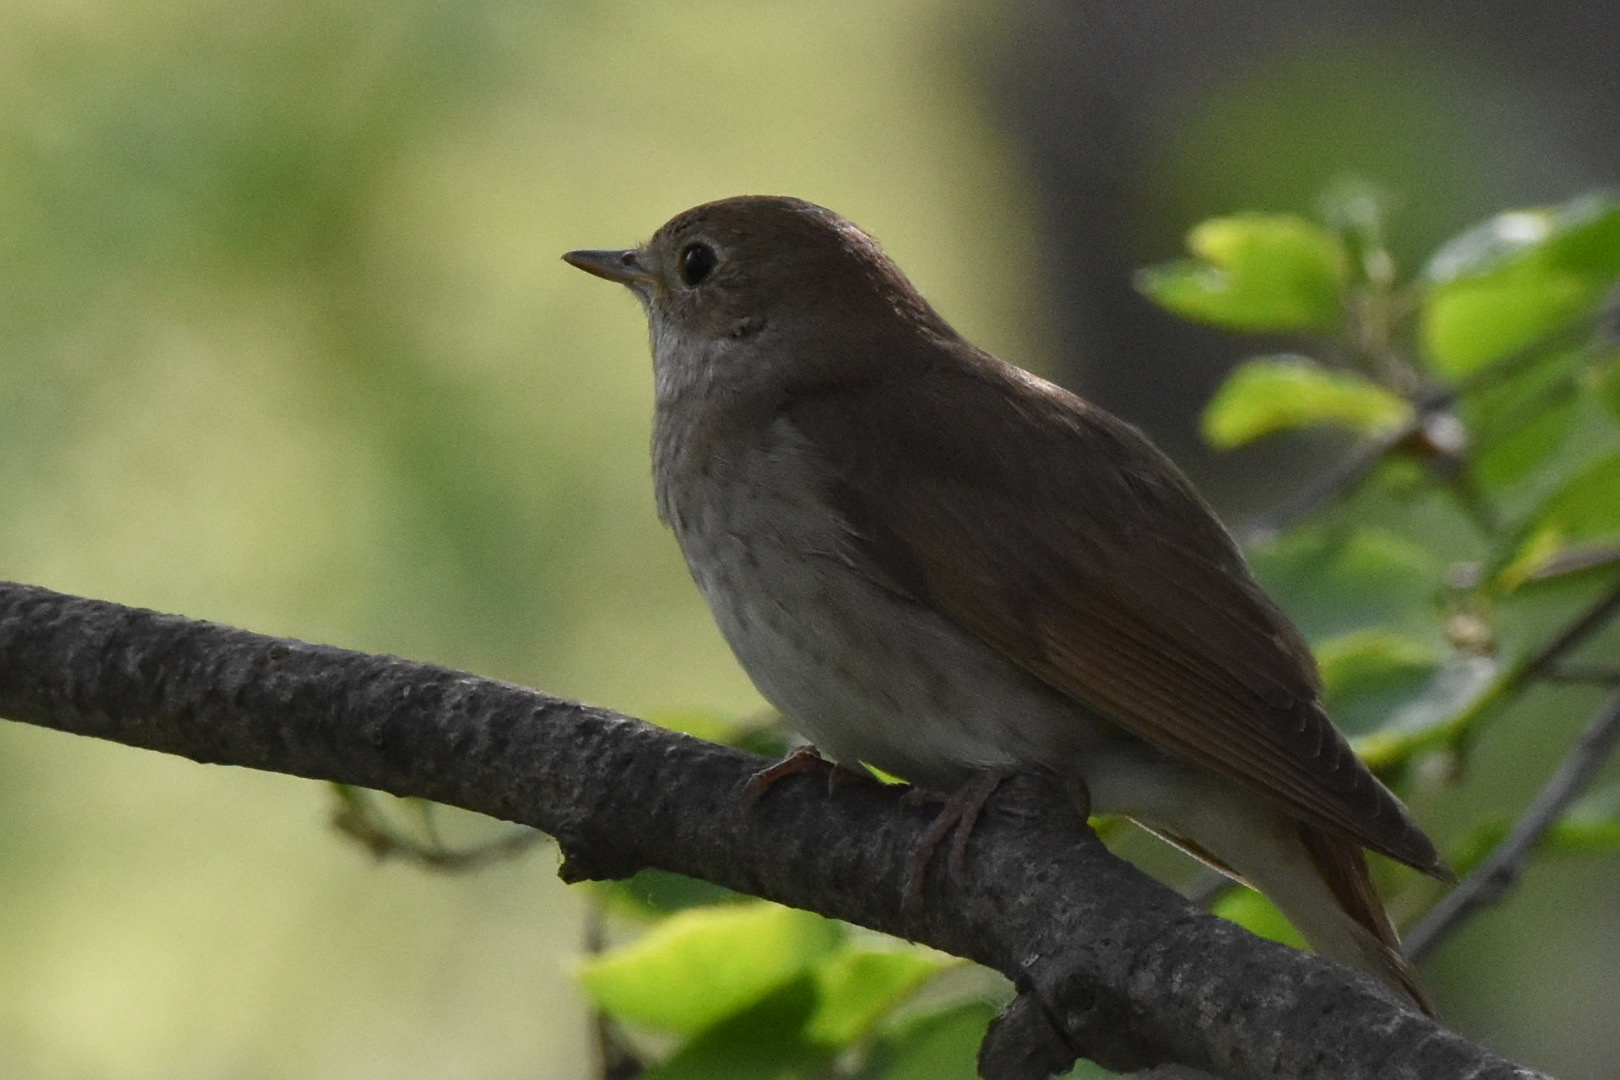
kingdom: Animalia
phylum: Chordata
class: Aves
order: Passeriformes
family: Muscicapidae
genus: Luscinia
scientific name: Luscinia luscinia
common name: Thrush nightingale
